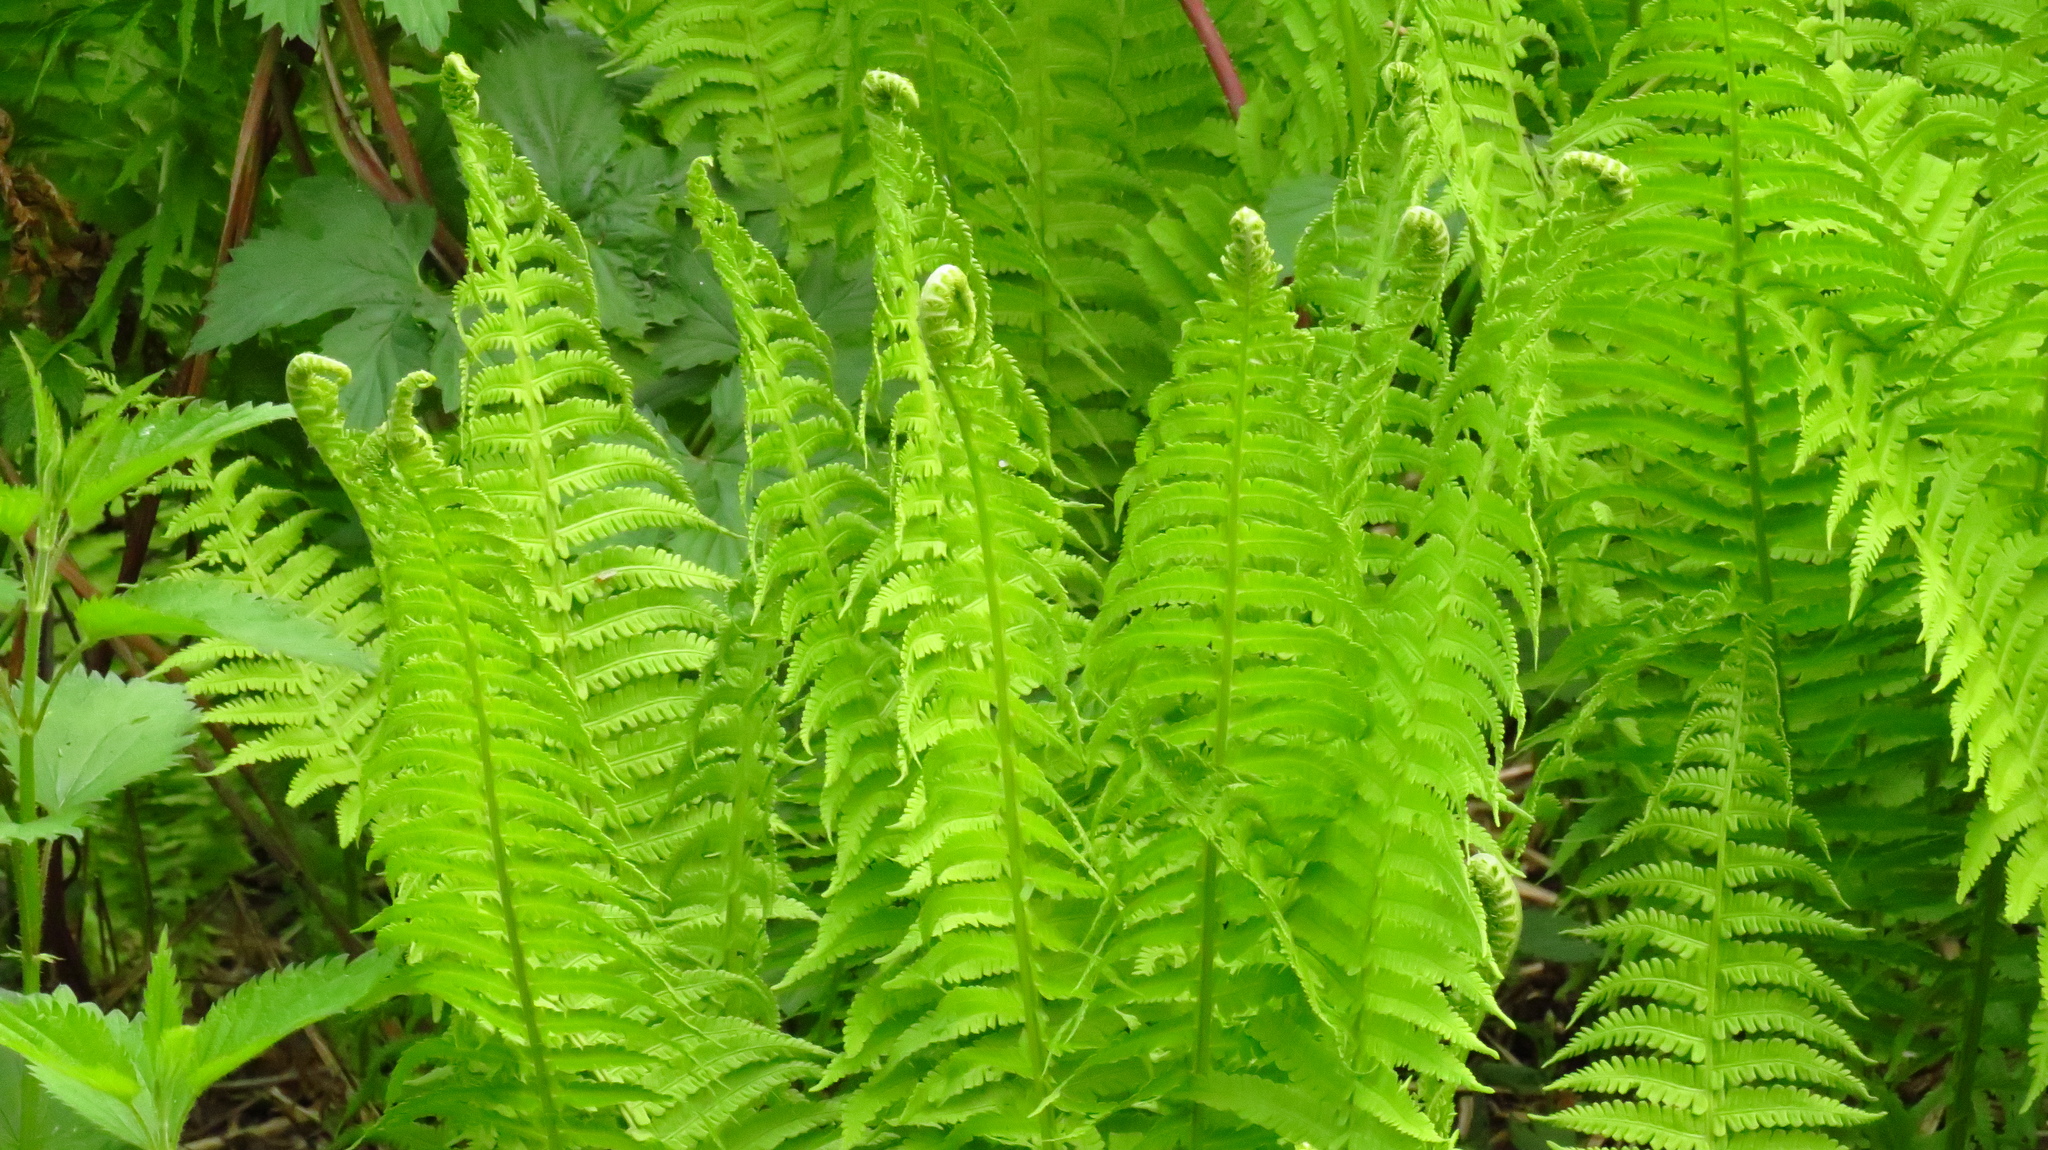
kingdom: Plantae
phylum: Tracheophyta
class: Polypodiopsida
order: Polypodiales
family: Onocleaceae
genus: Matteuccia
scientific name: Matteuccia struthiopteris
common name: Ostrich fern
